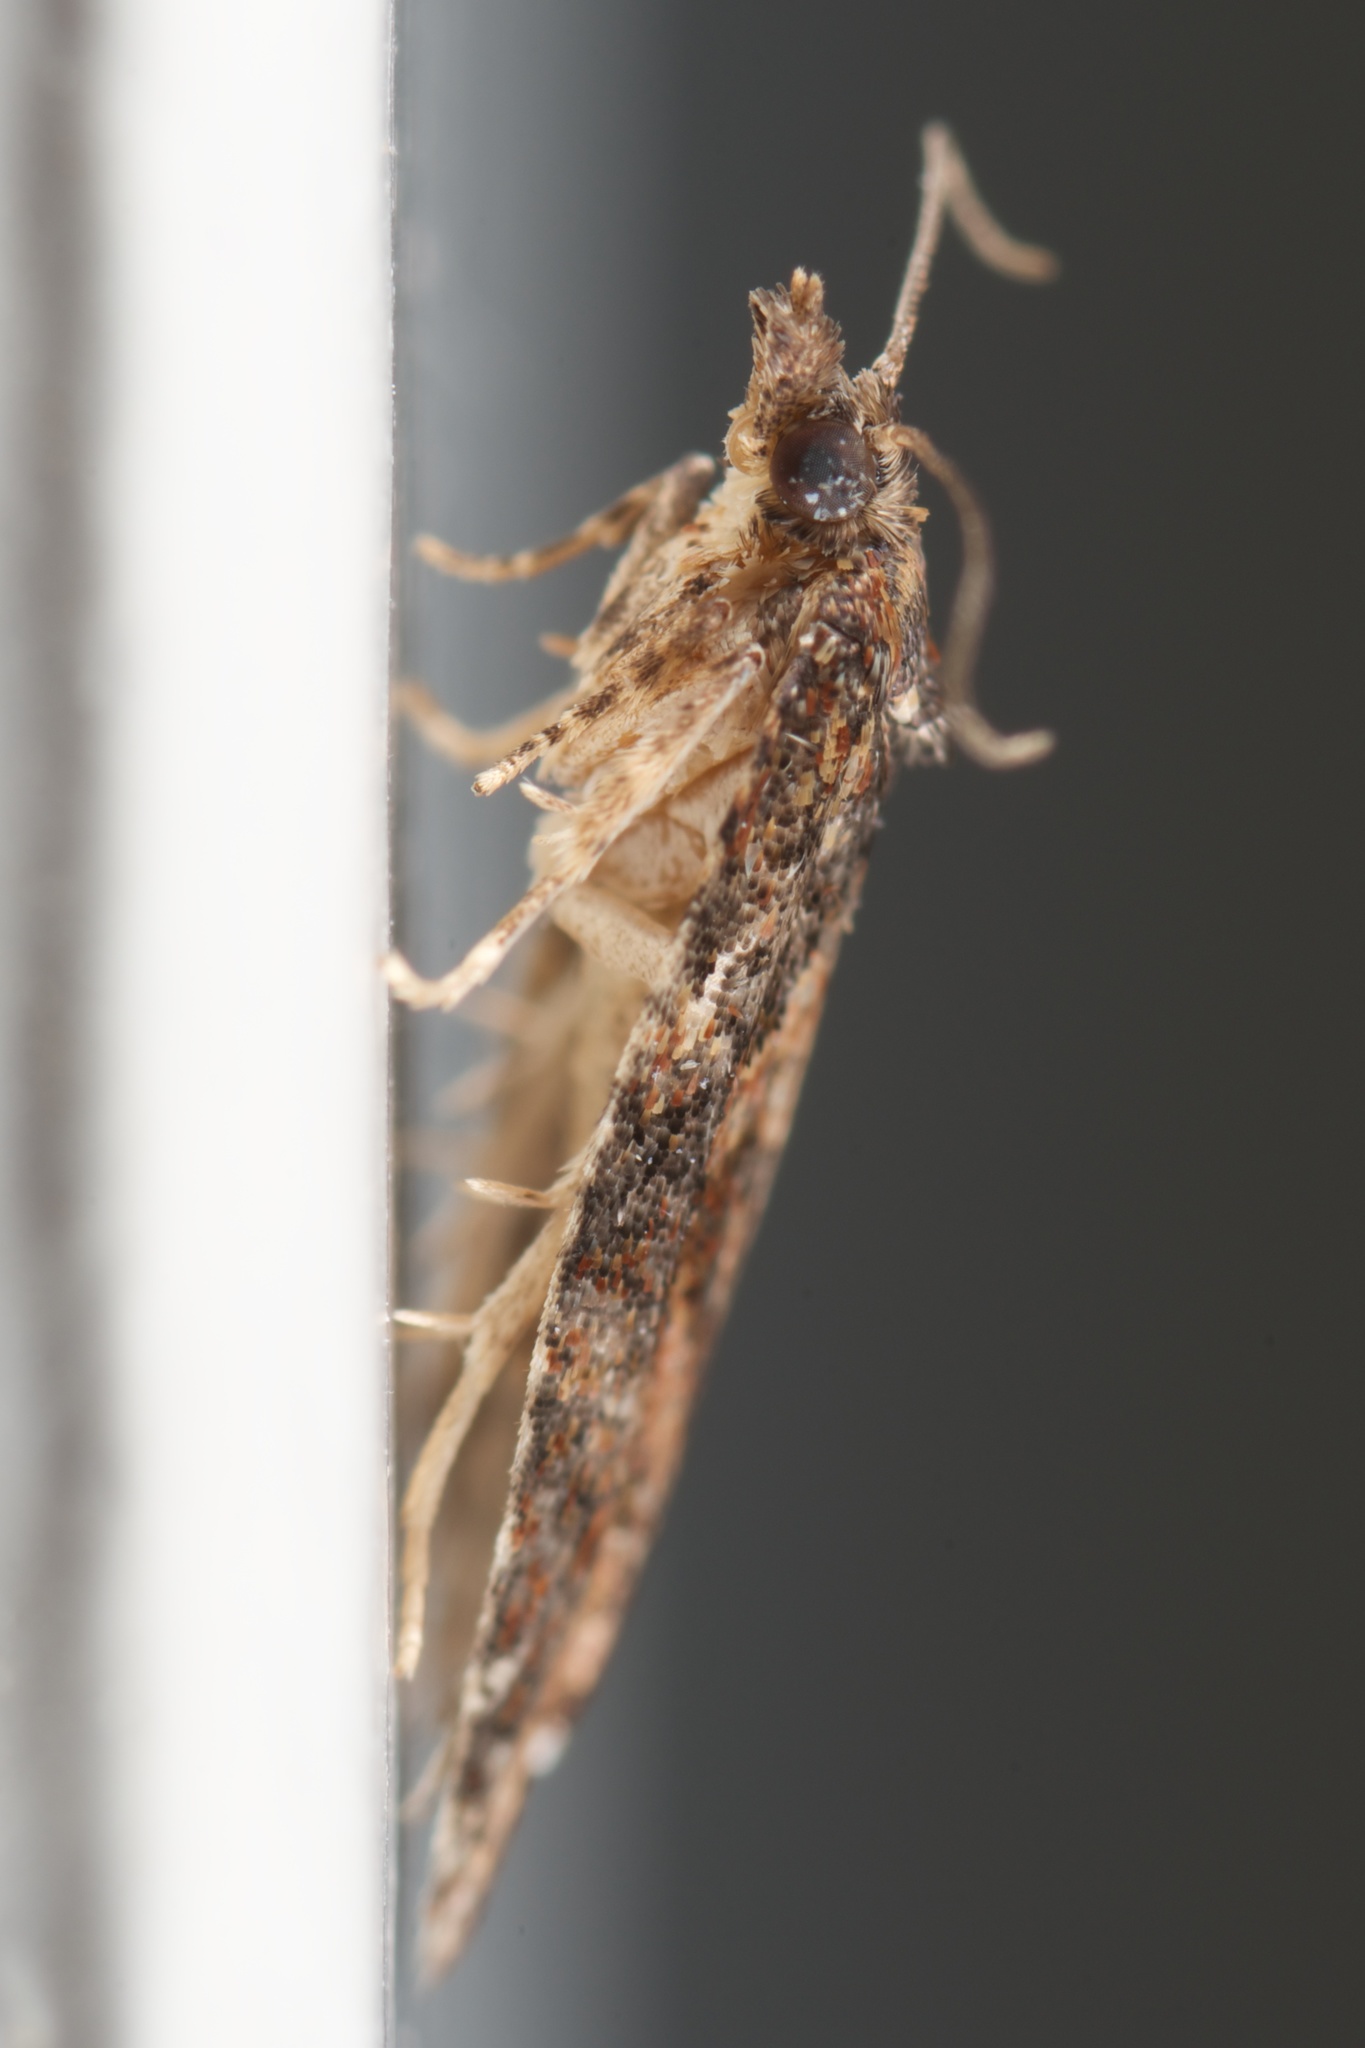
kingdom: Animalia
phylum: Arthropoda
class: Insecta
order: Lepidoptera
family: Tortricidae
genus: Capua
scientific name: Capua intractana
